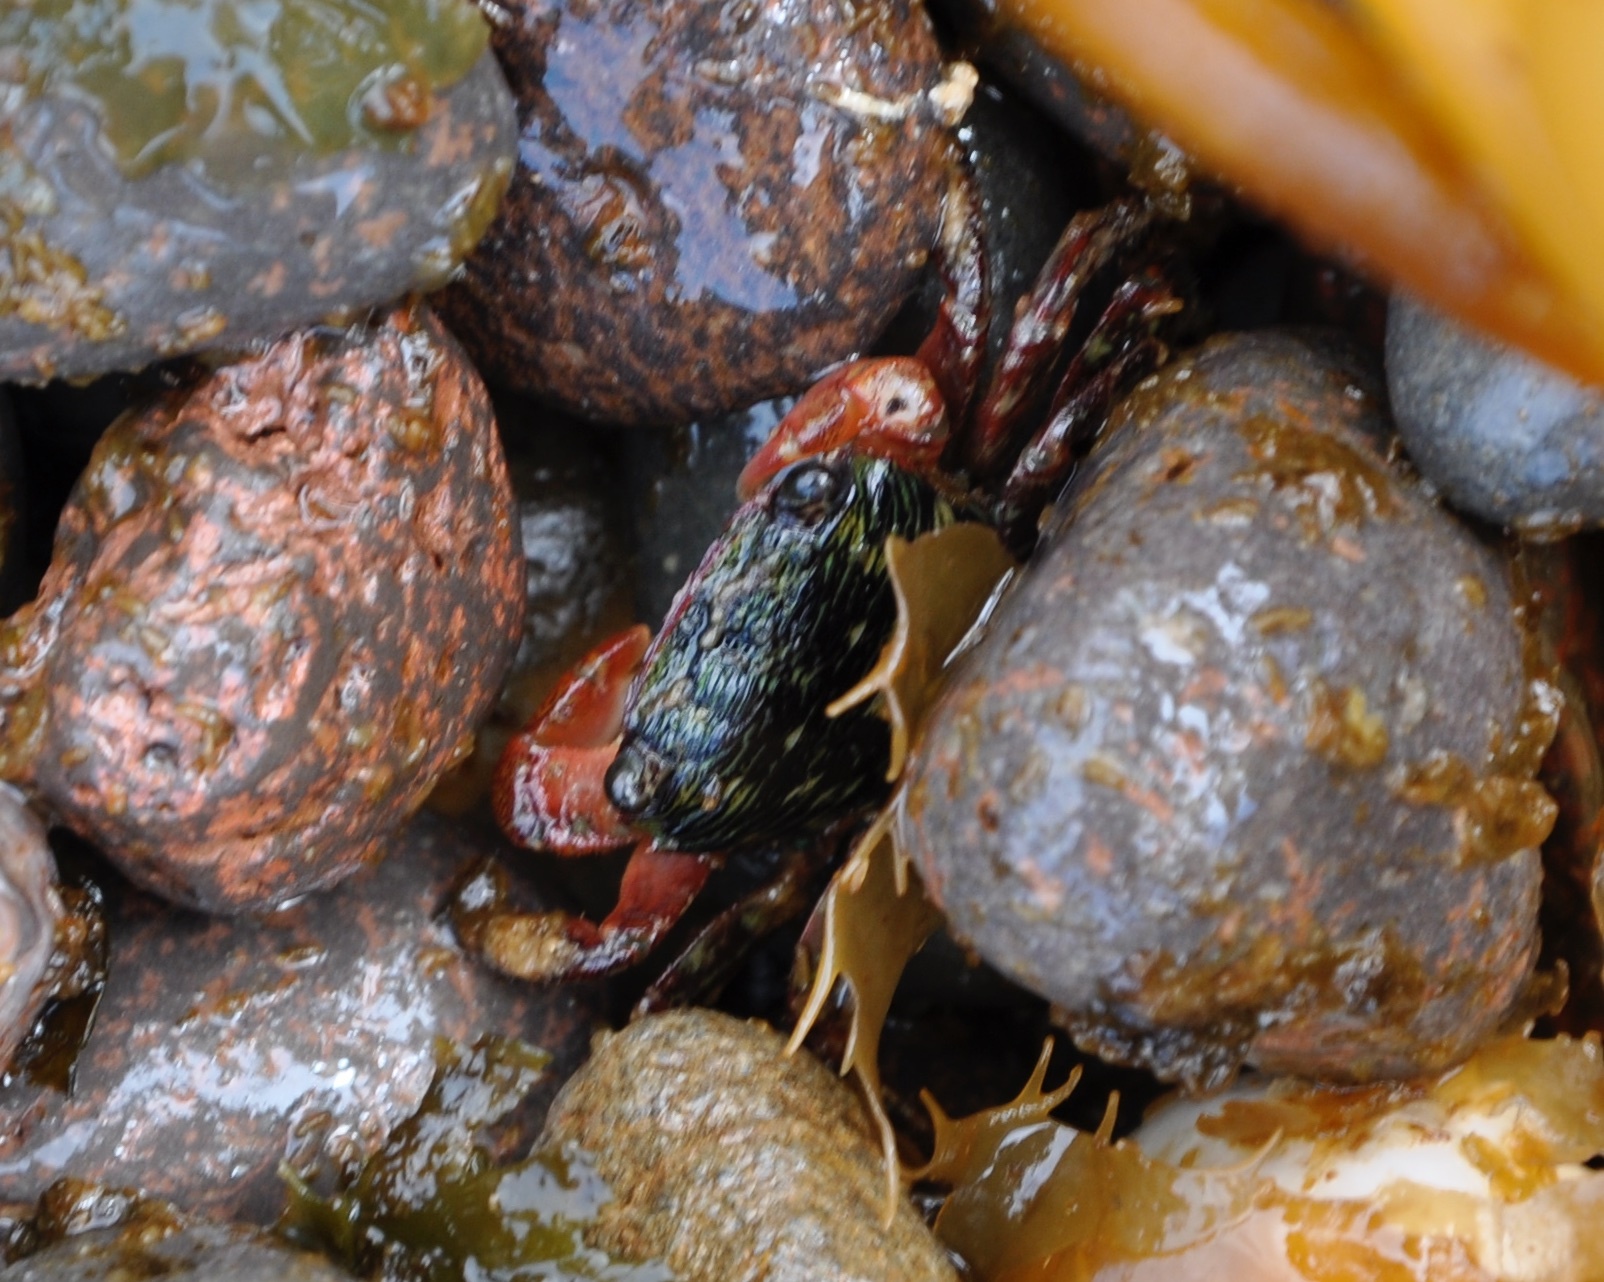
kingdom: Animalia
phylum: Arthropoda
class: Malacostraca
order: Decapoda
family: Grapsidae
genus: Pachygrapsus
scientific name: Pachygrapsus crassipes
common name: Striped shore crab
